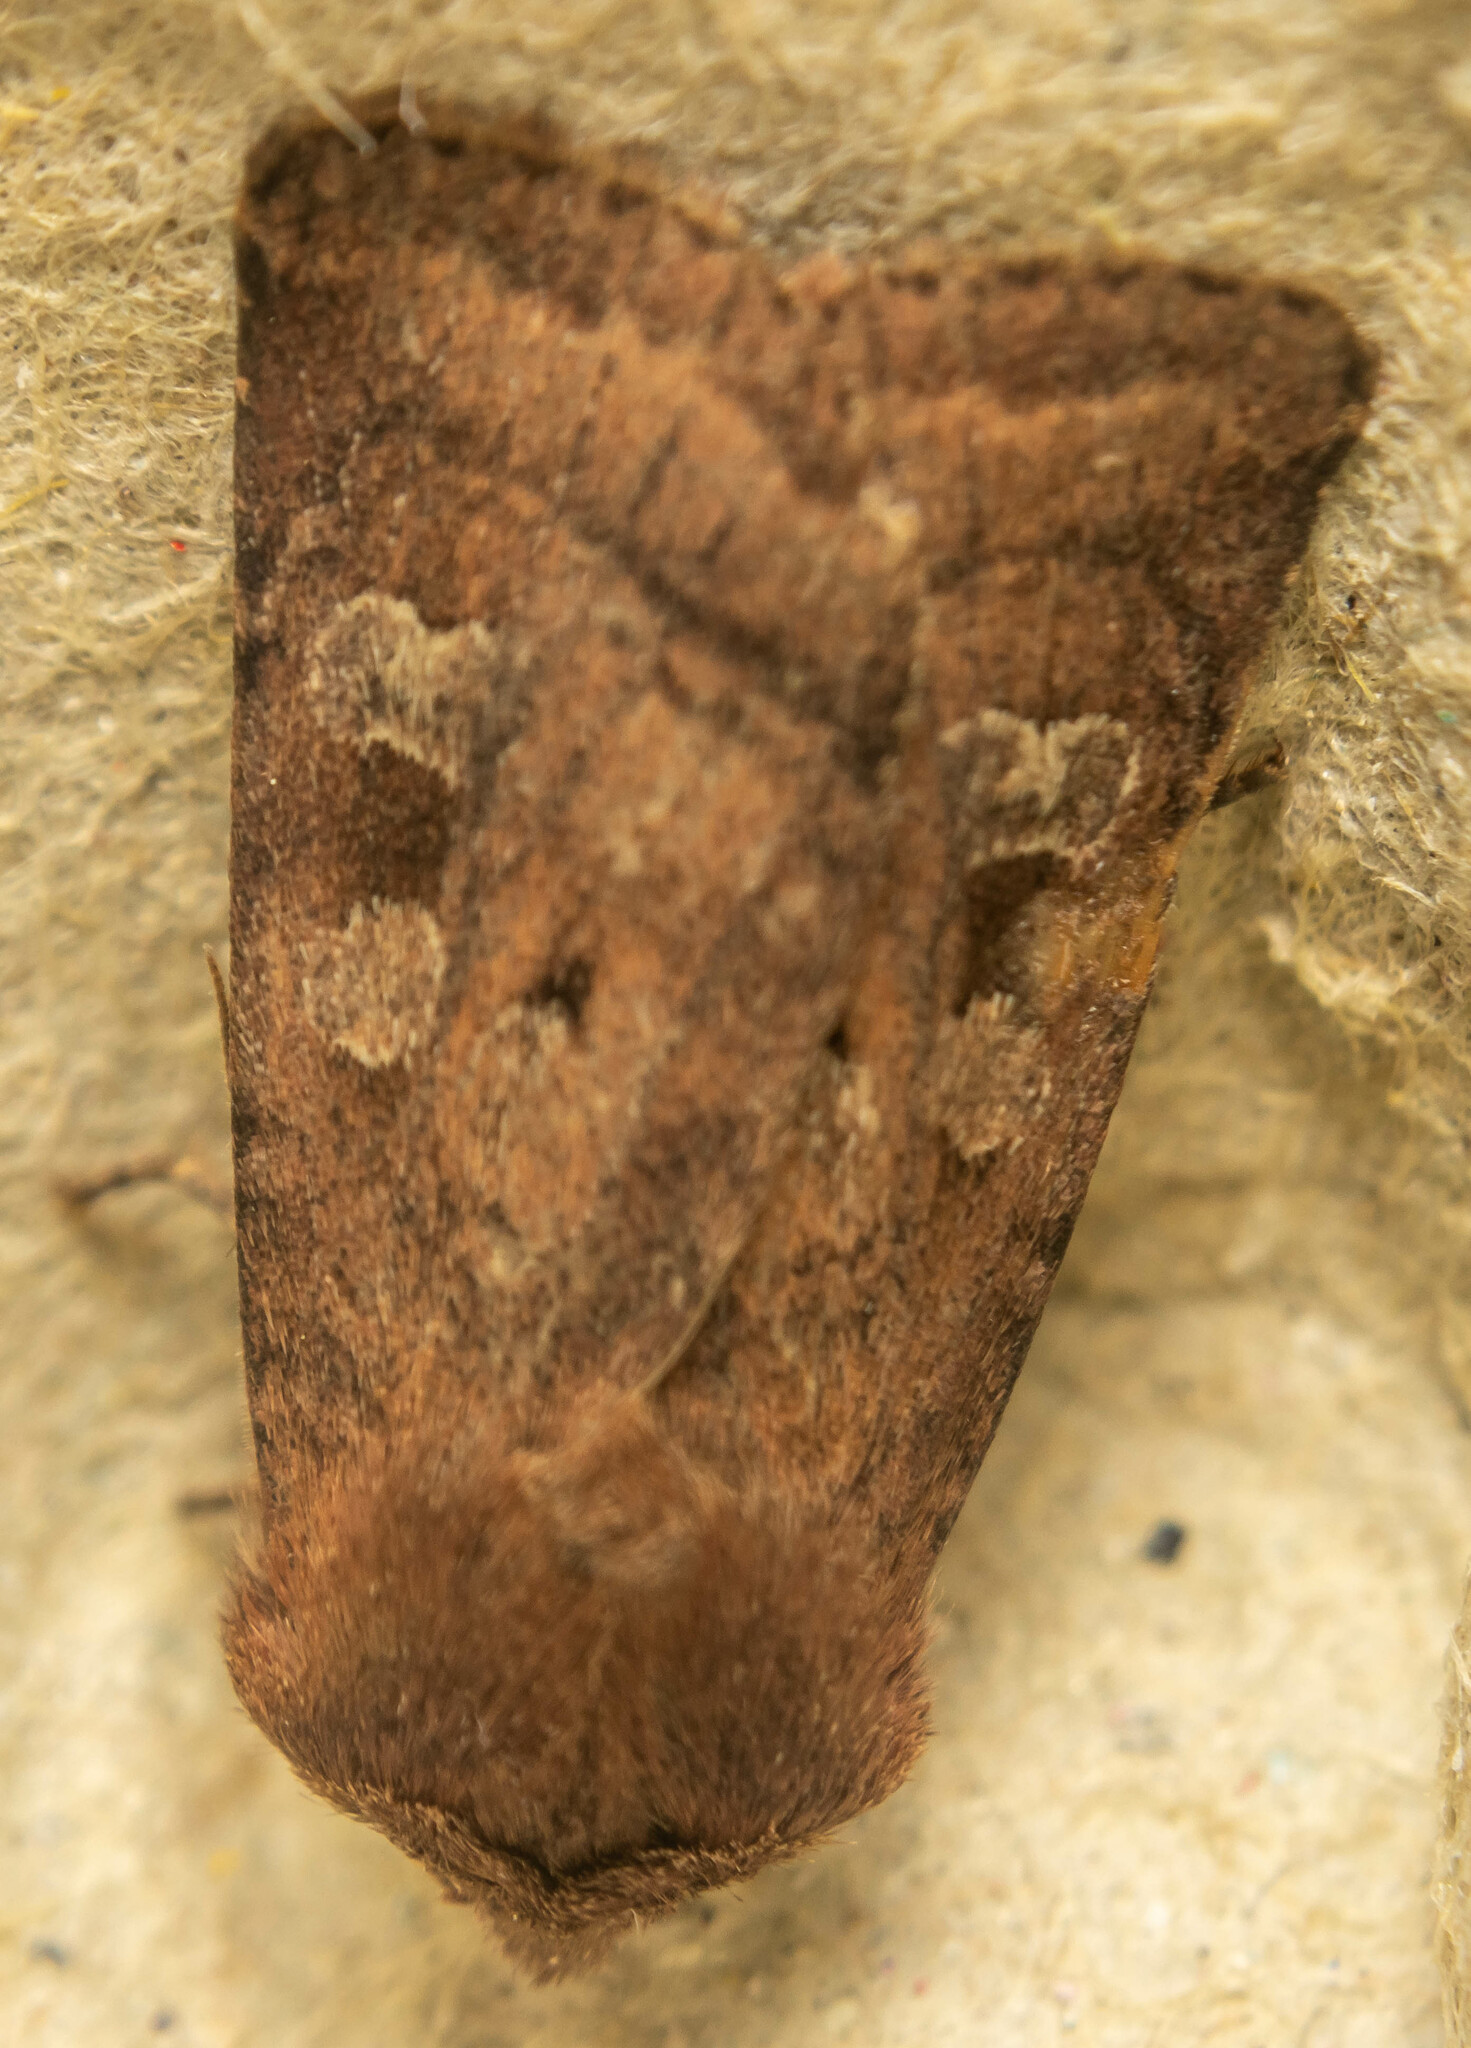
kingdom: Animalia
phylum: Arthropoda
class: Insecta
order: Lepidoptera
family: Noctuidae
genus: Diarsia
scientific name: Diarsia rubi
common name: Small square-spot
